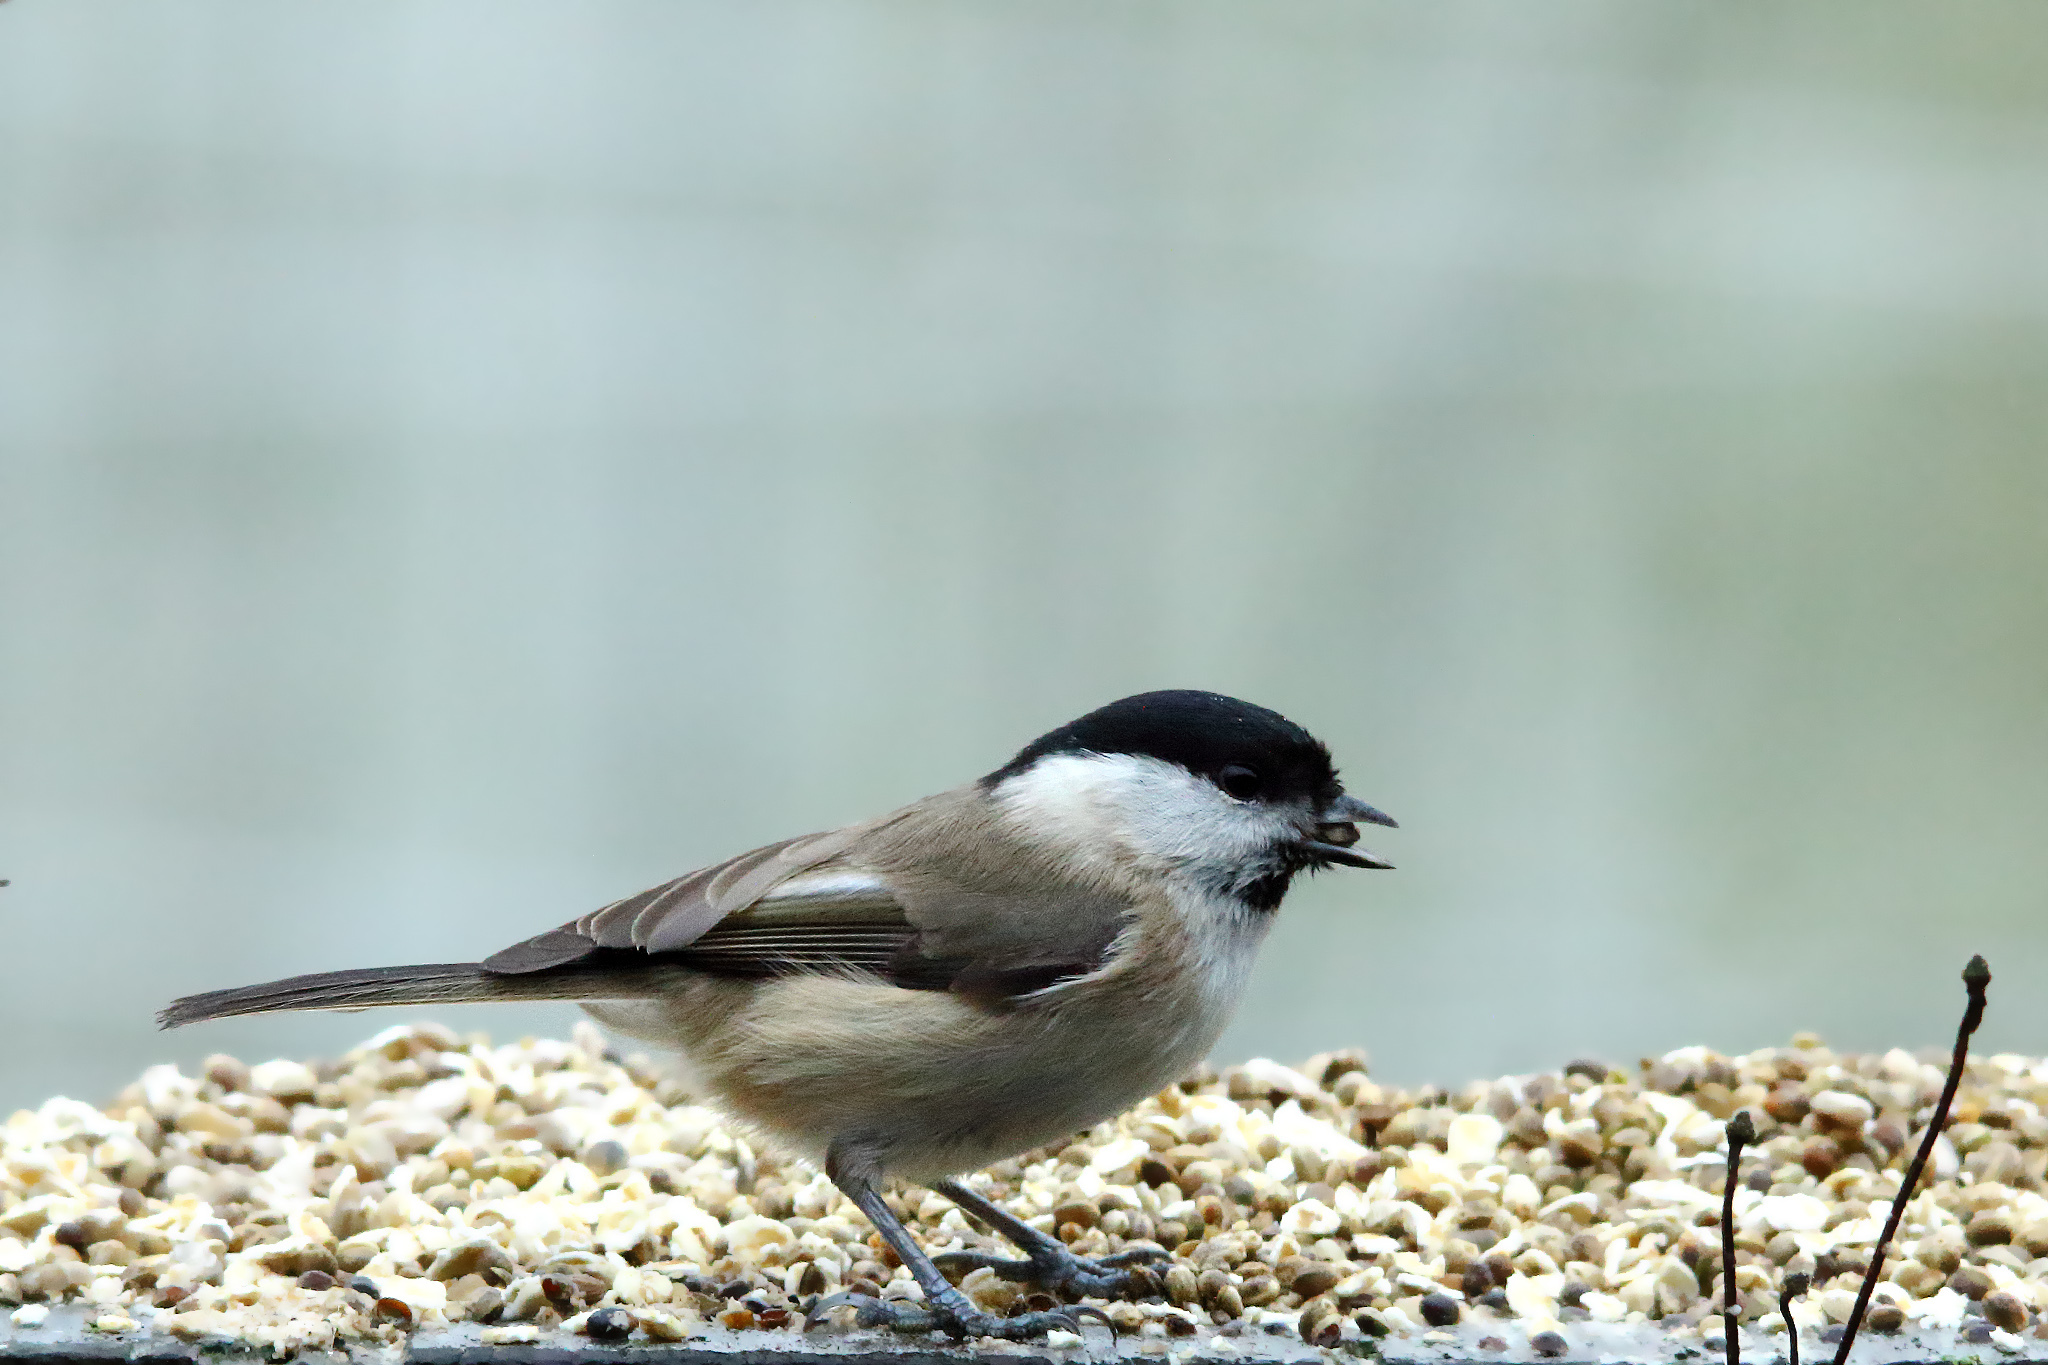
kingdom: Animalia
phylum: Chordata
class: Aves
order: Passeriformes
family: Paridae
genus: Poecile
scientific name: Poecile palustris
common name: Marsh tit
